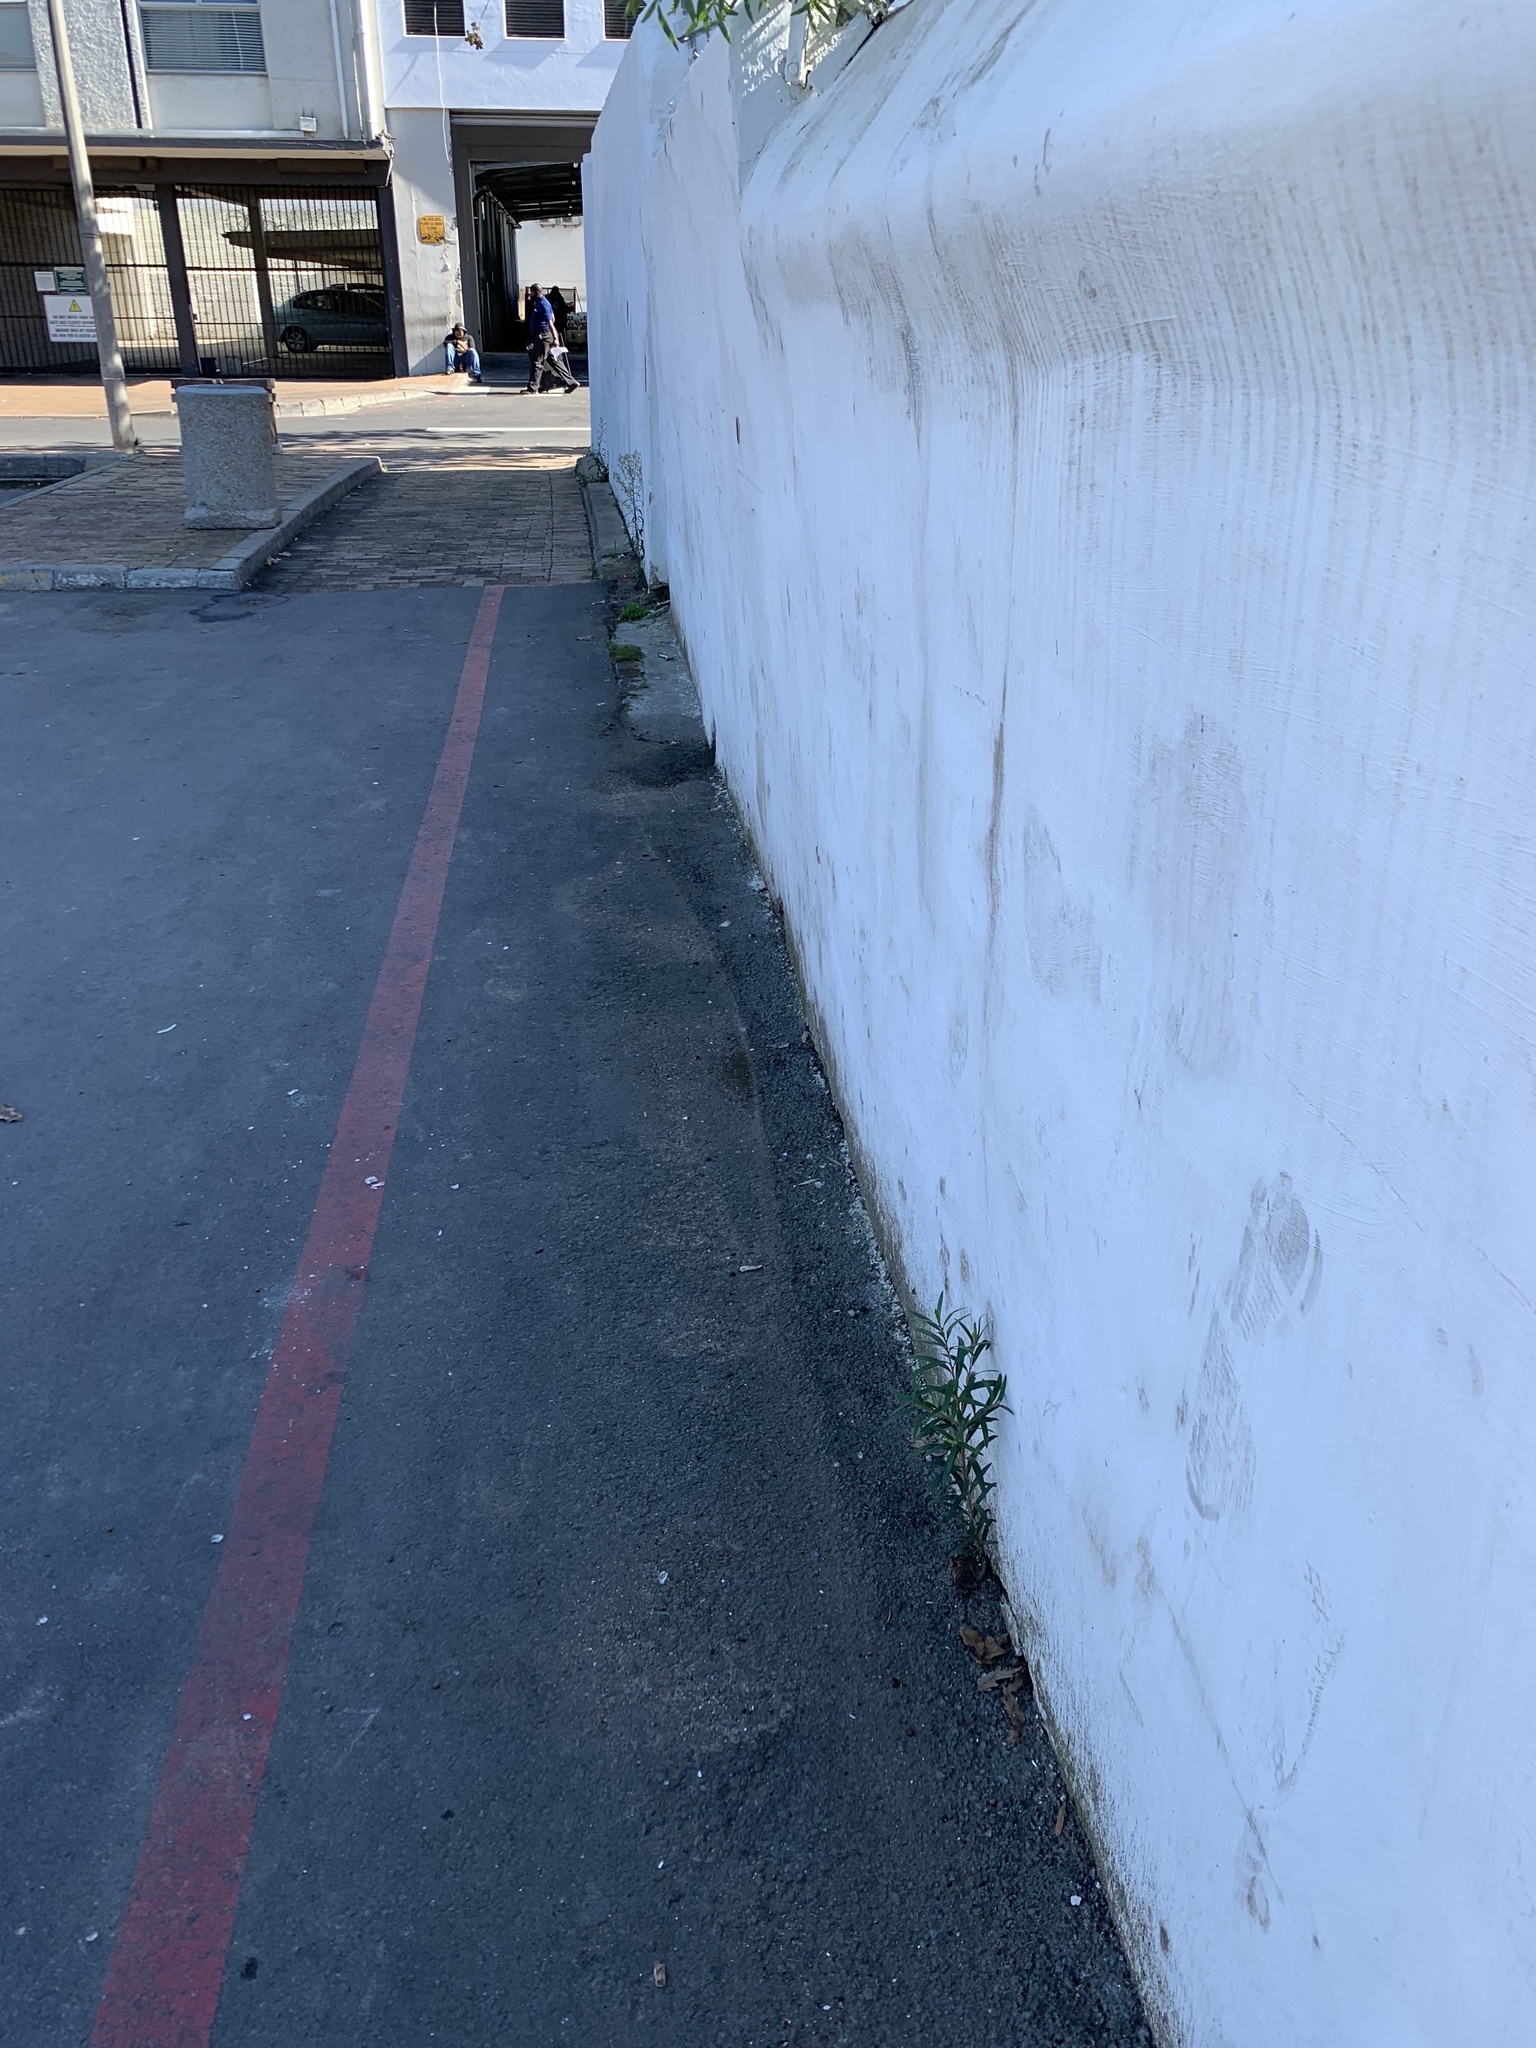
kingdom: Plantae
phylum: Tracheophyta
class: Magnoliopsida
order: Myrtales
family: Myrtaceae
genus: Callistemon
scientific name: Callistemon viminalis
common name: Drooping bottlebrush
